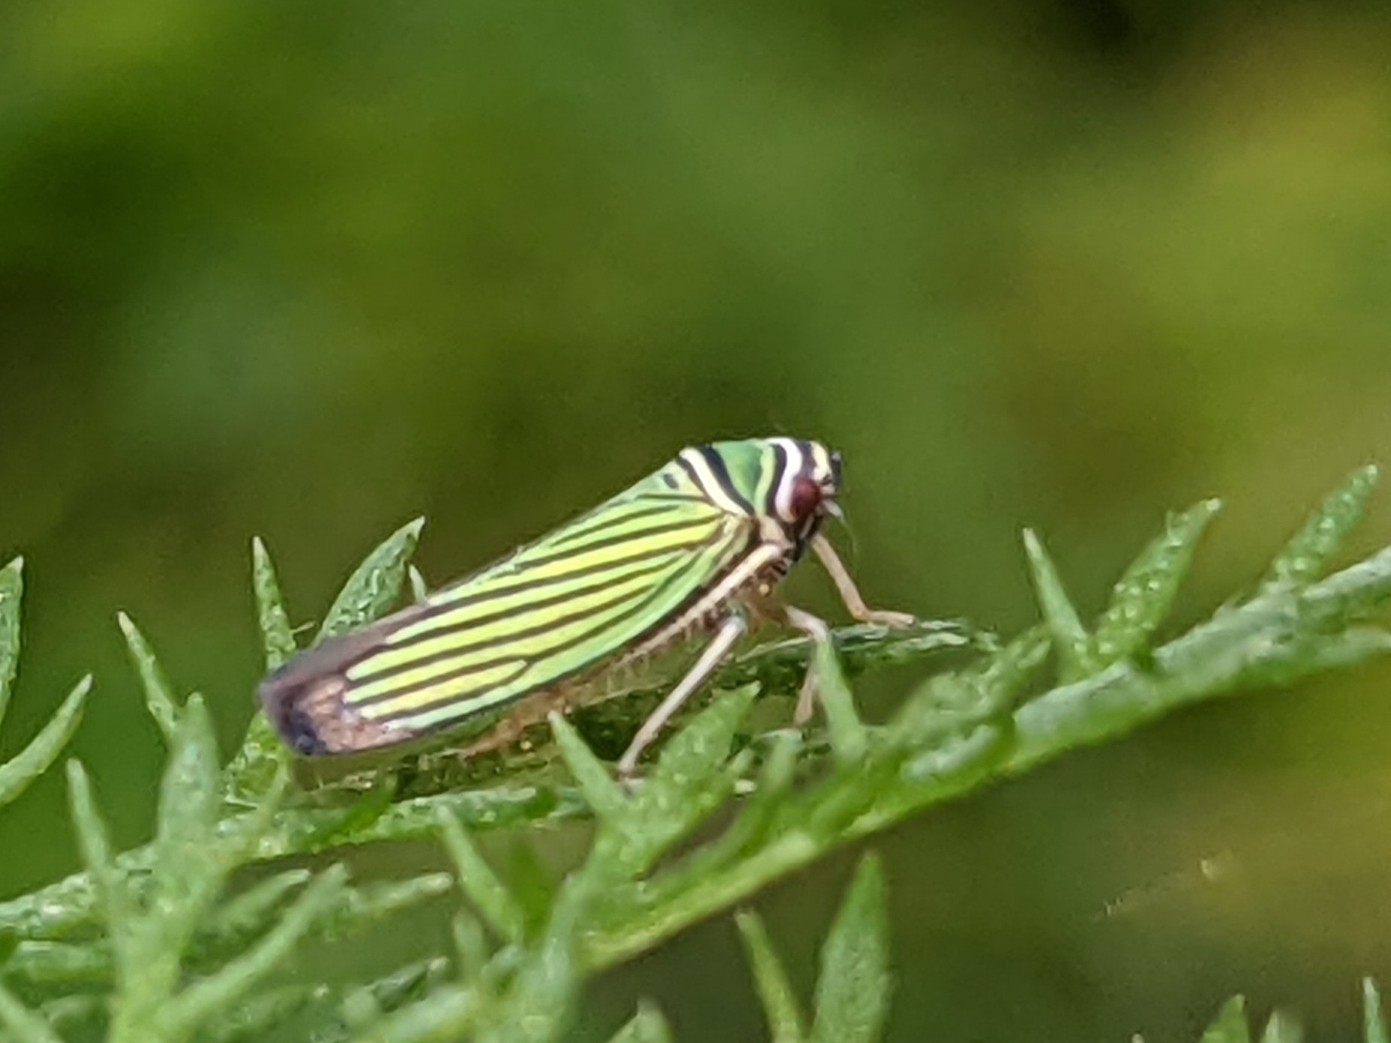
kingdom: Animalia
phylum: Arthropoda
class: Insecta
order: Hemiptera
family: Cicadellidae
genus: Tylozygus
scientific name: Tylozygus bifidus
